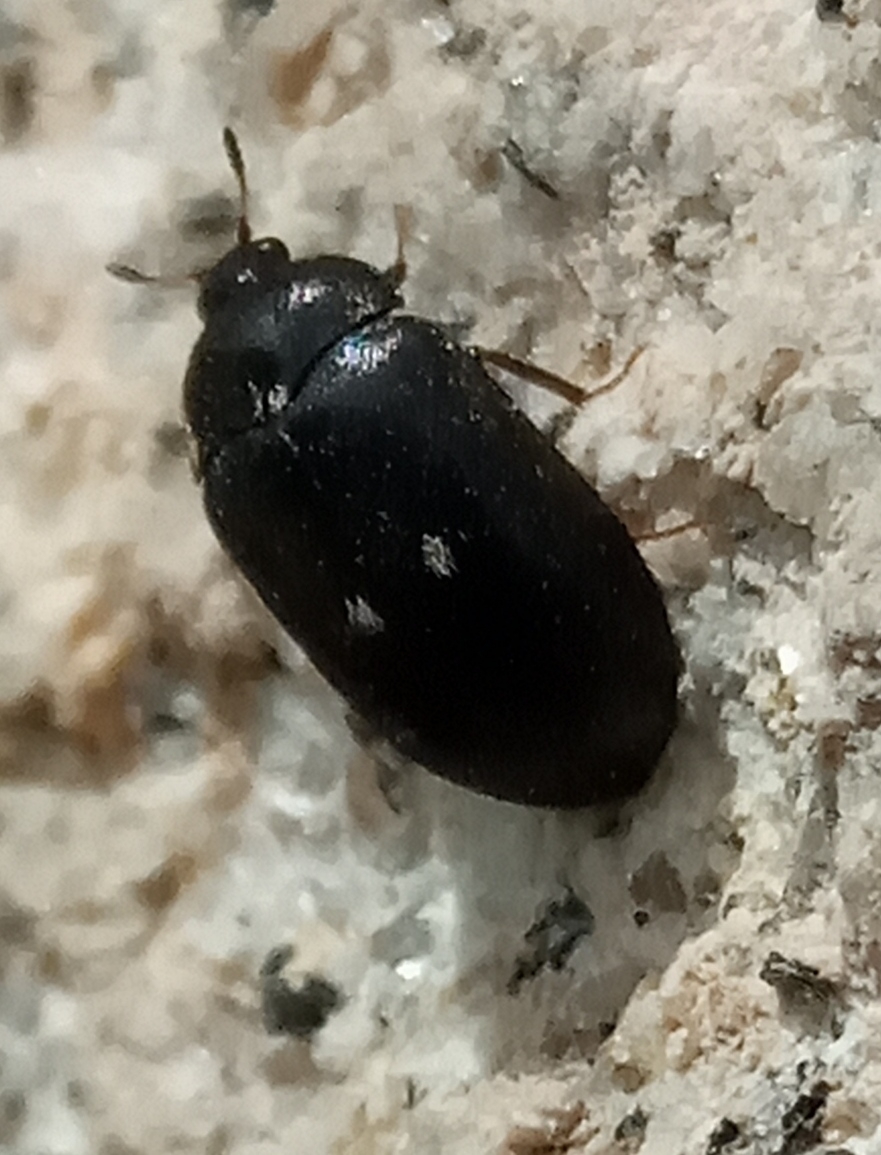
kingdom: Animalia
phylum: Arthropoda
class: Insecta
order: Coleoptera
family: Dermestidae
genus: Attagenus
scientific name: Attagenus pellio
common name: Two-spotted carpet beetle
